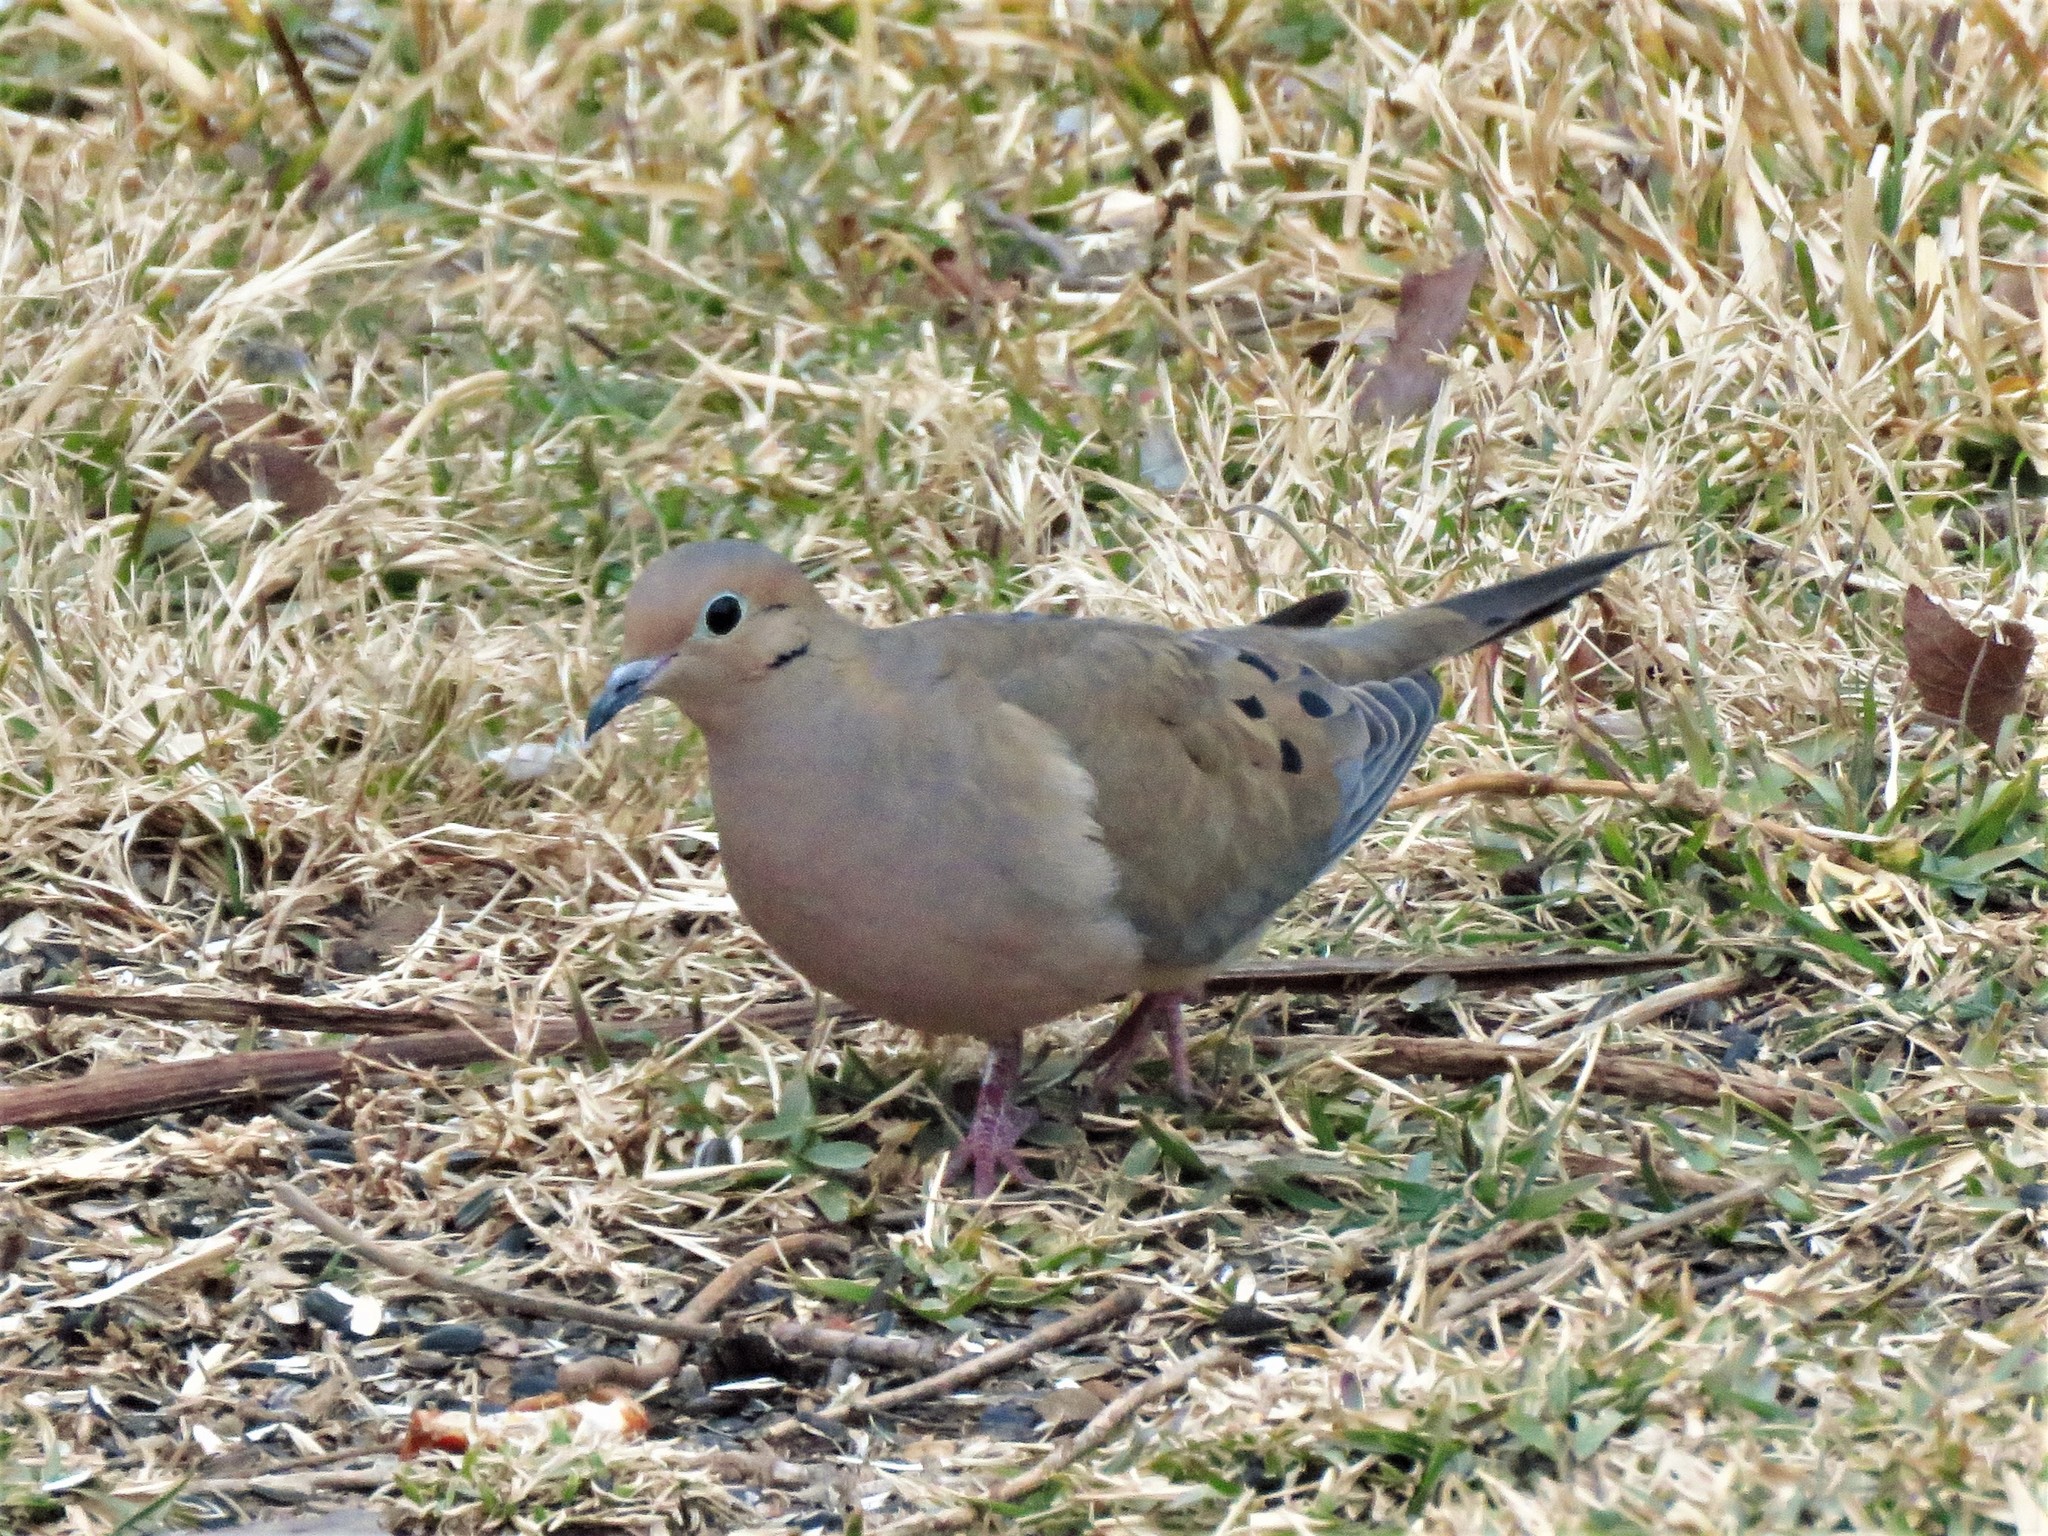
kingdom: Animalia
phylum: Chordata
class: Aves
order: Columbiformes
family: Columbidae
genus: Zenaida
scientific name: Zenaida macroura
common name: Mourning dove
